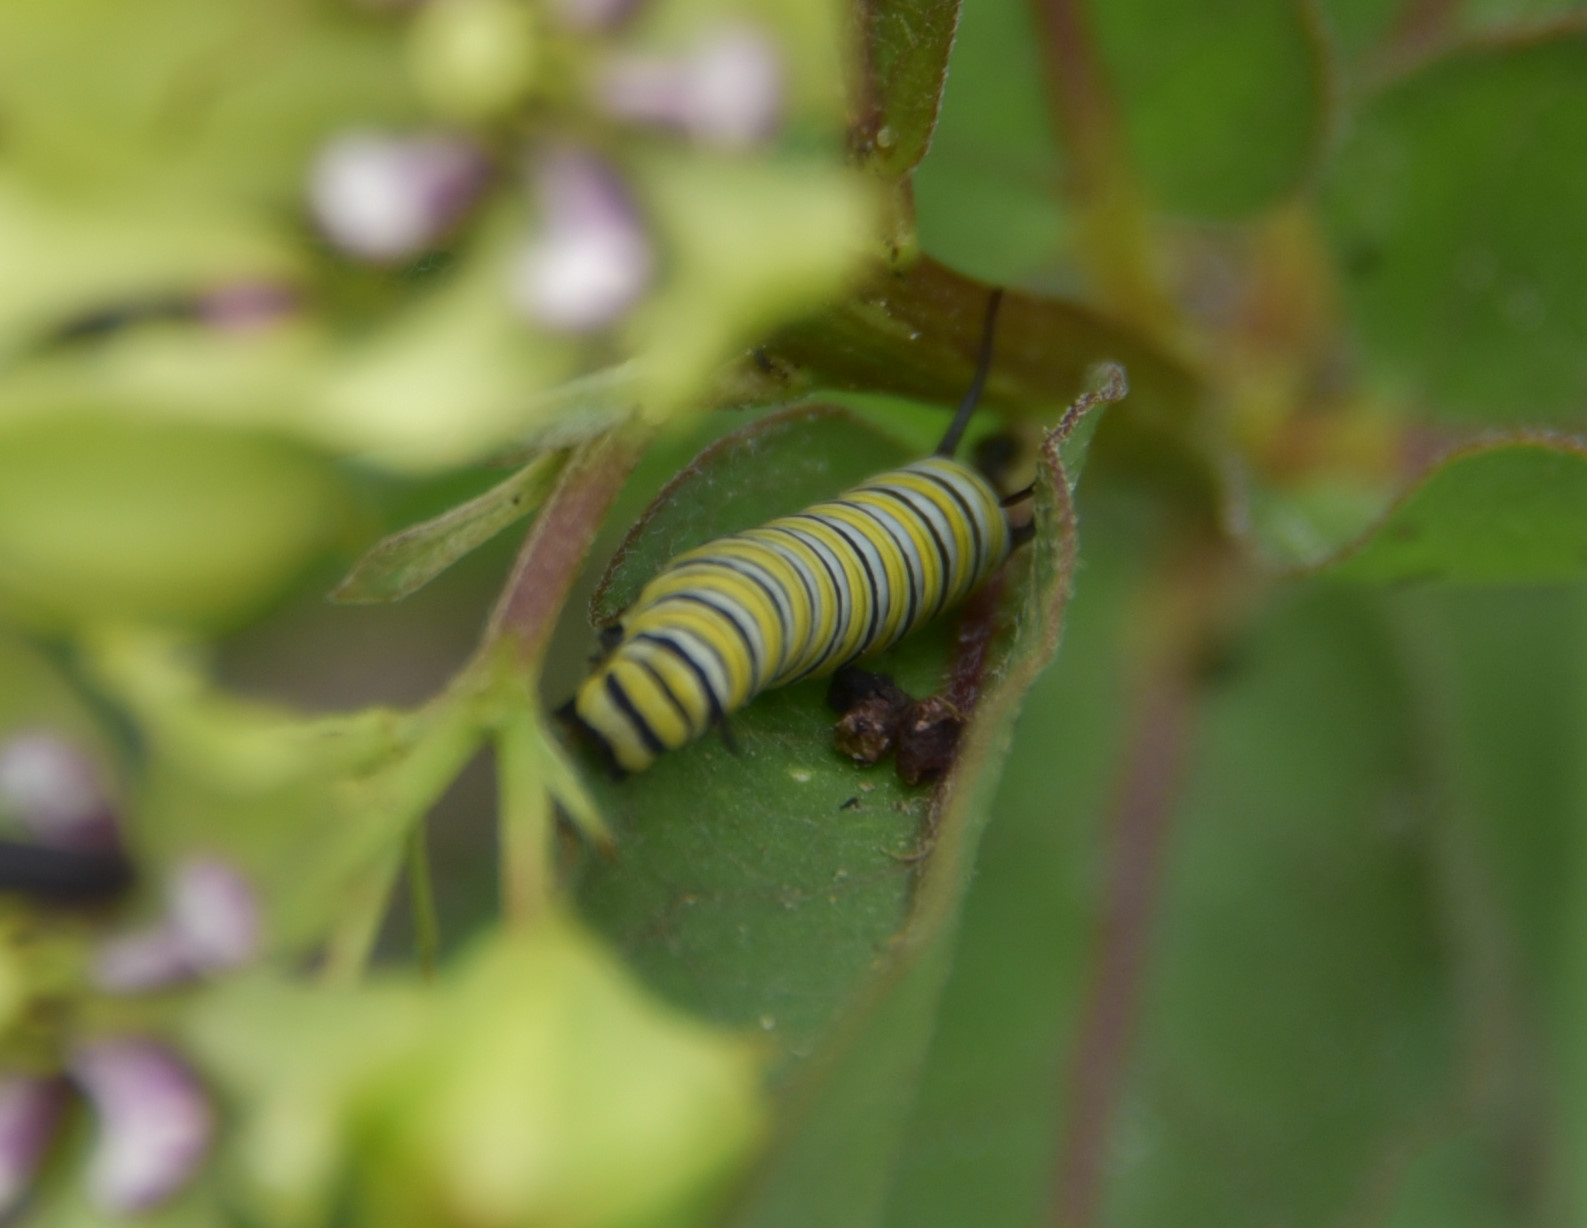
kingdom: Animalia
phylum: Arthropoda
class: Insecta
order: Lepidoptera
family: Nymphalidae
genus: Danaus
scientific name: Danaus plexippus
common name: Monarch
